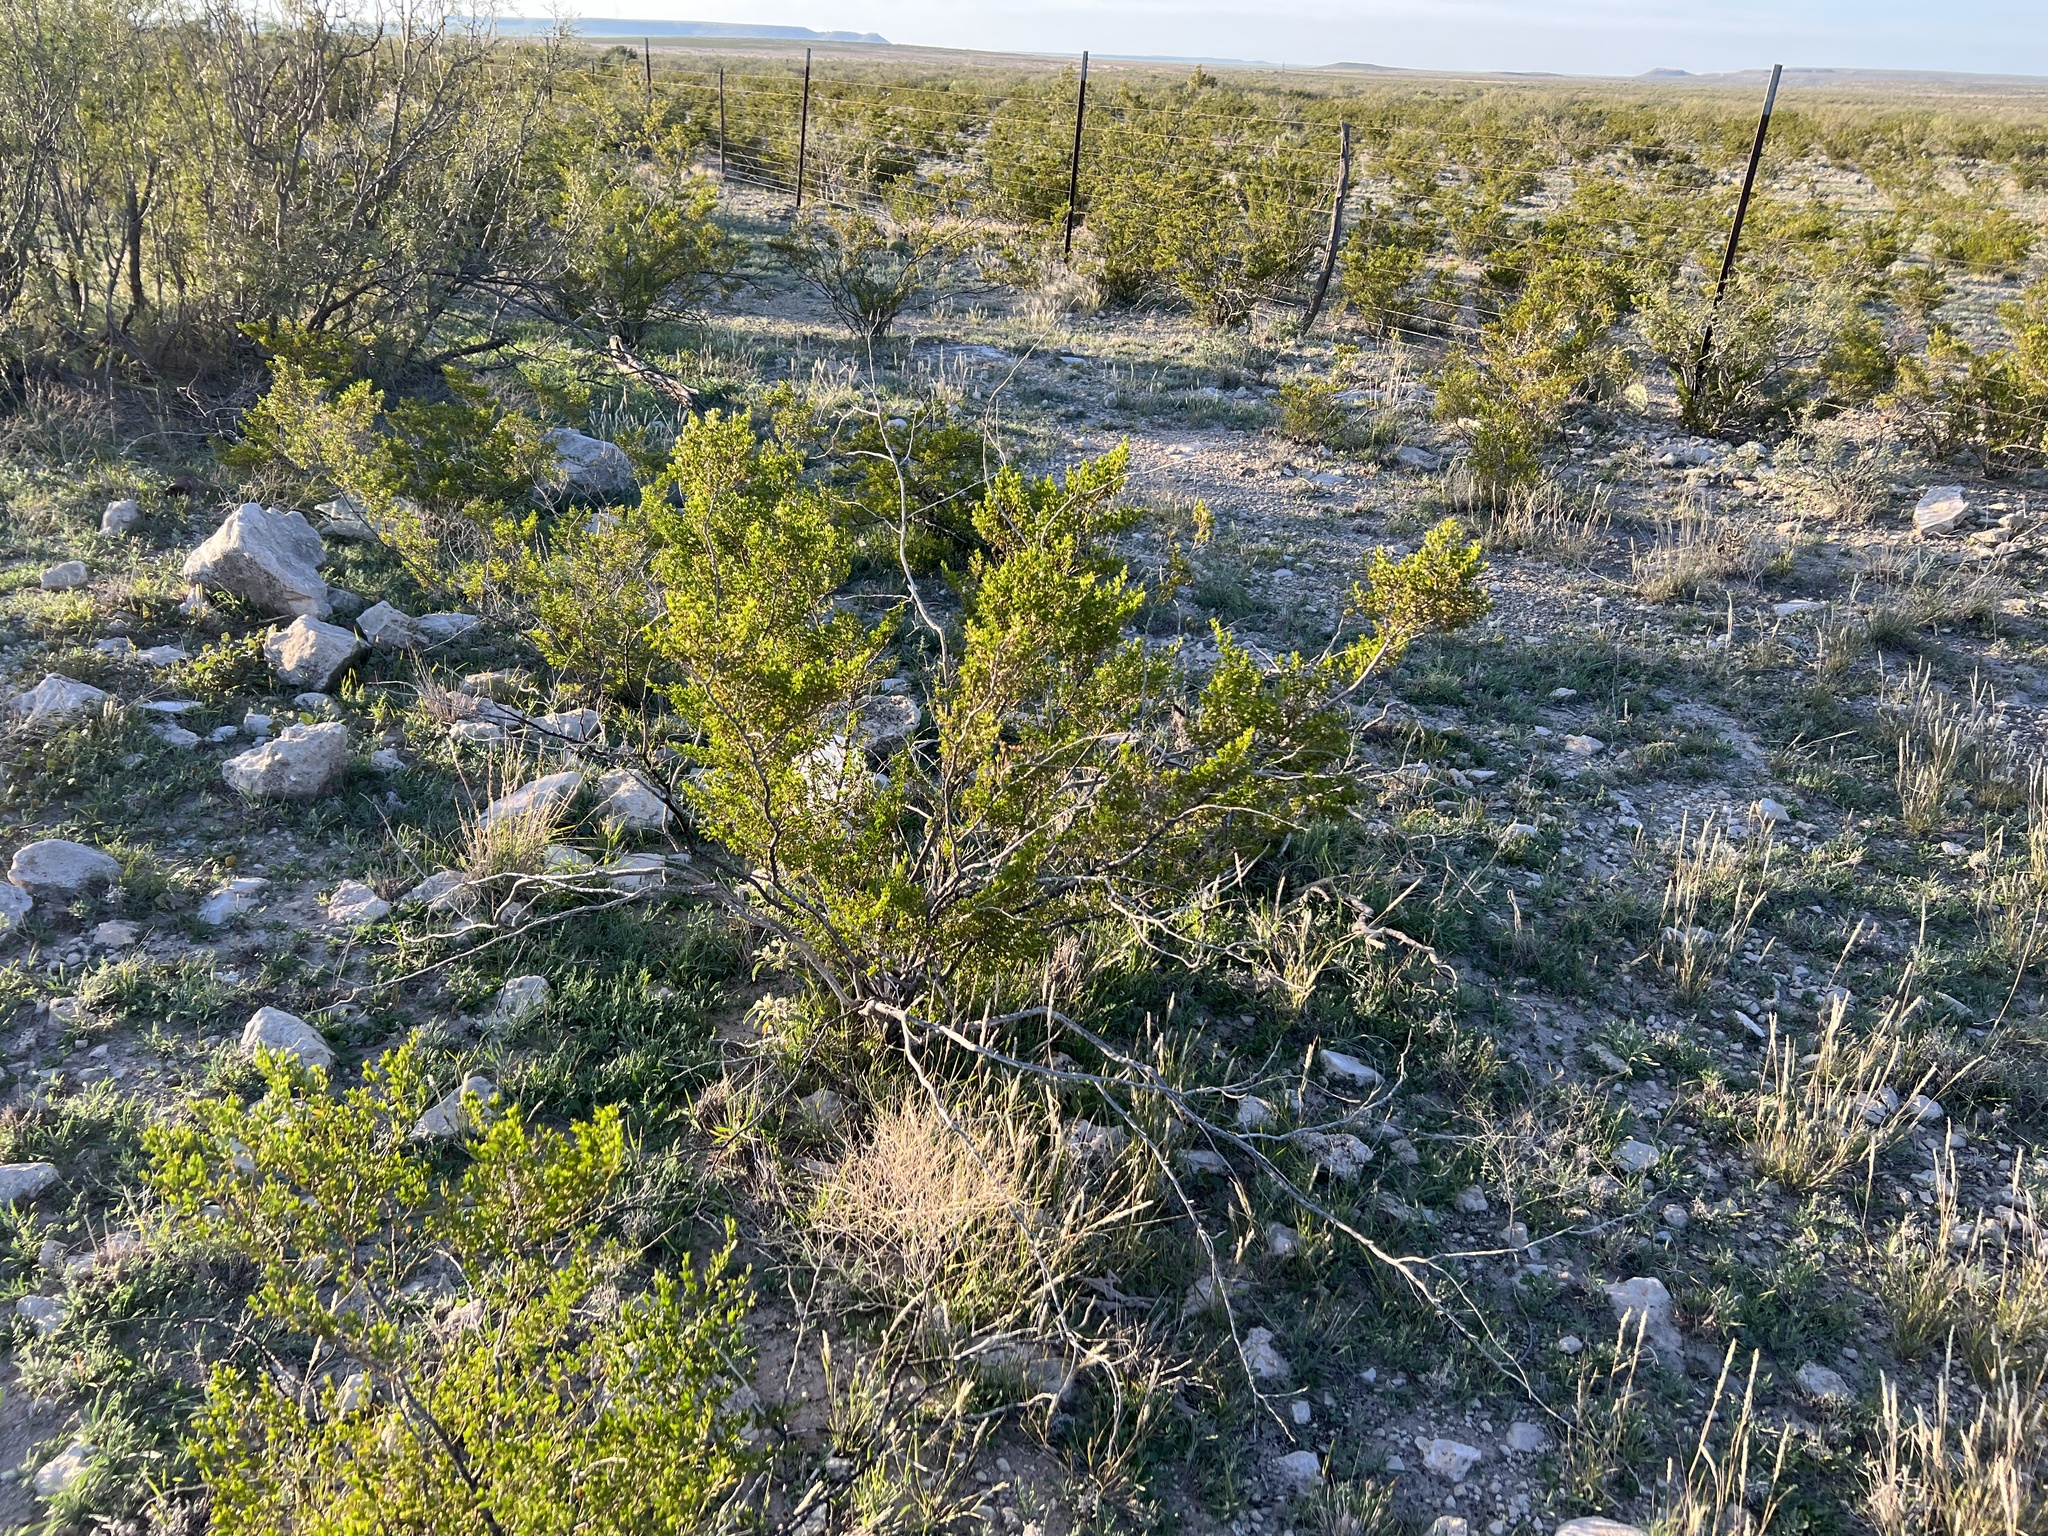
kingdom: Plantae
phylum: Tracheophyta
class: Magnoliopsida
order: Zygophyllales
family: Zygophyllaceae
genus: Larrea
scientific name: Larrea tridentata
